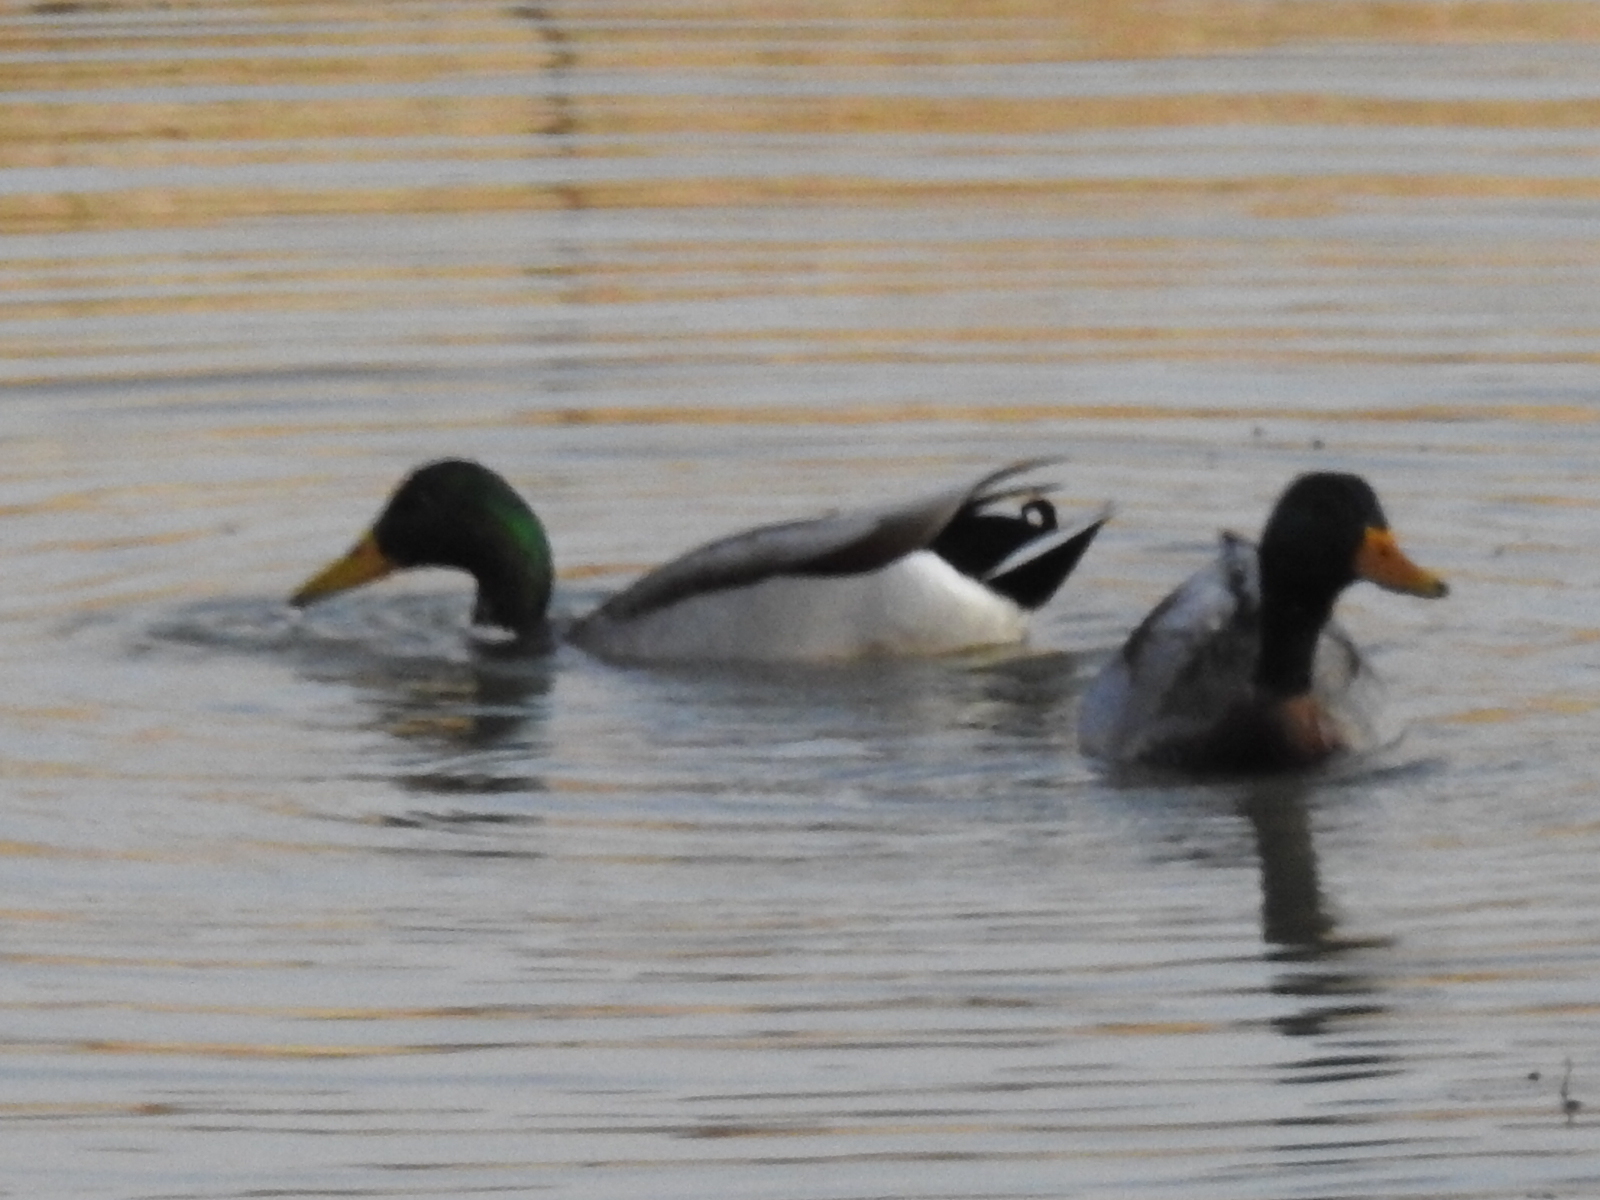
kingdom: Animalia
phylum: Chordata
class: Aves
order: Anseriformes
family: Anatidae
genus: Anas
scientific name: Anas platyrhynchos
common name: Mallard
